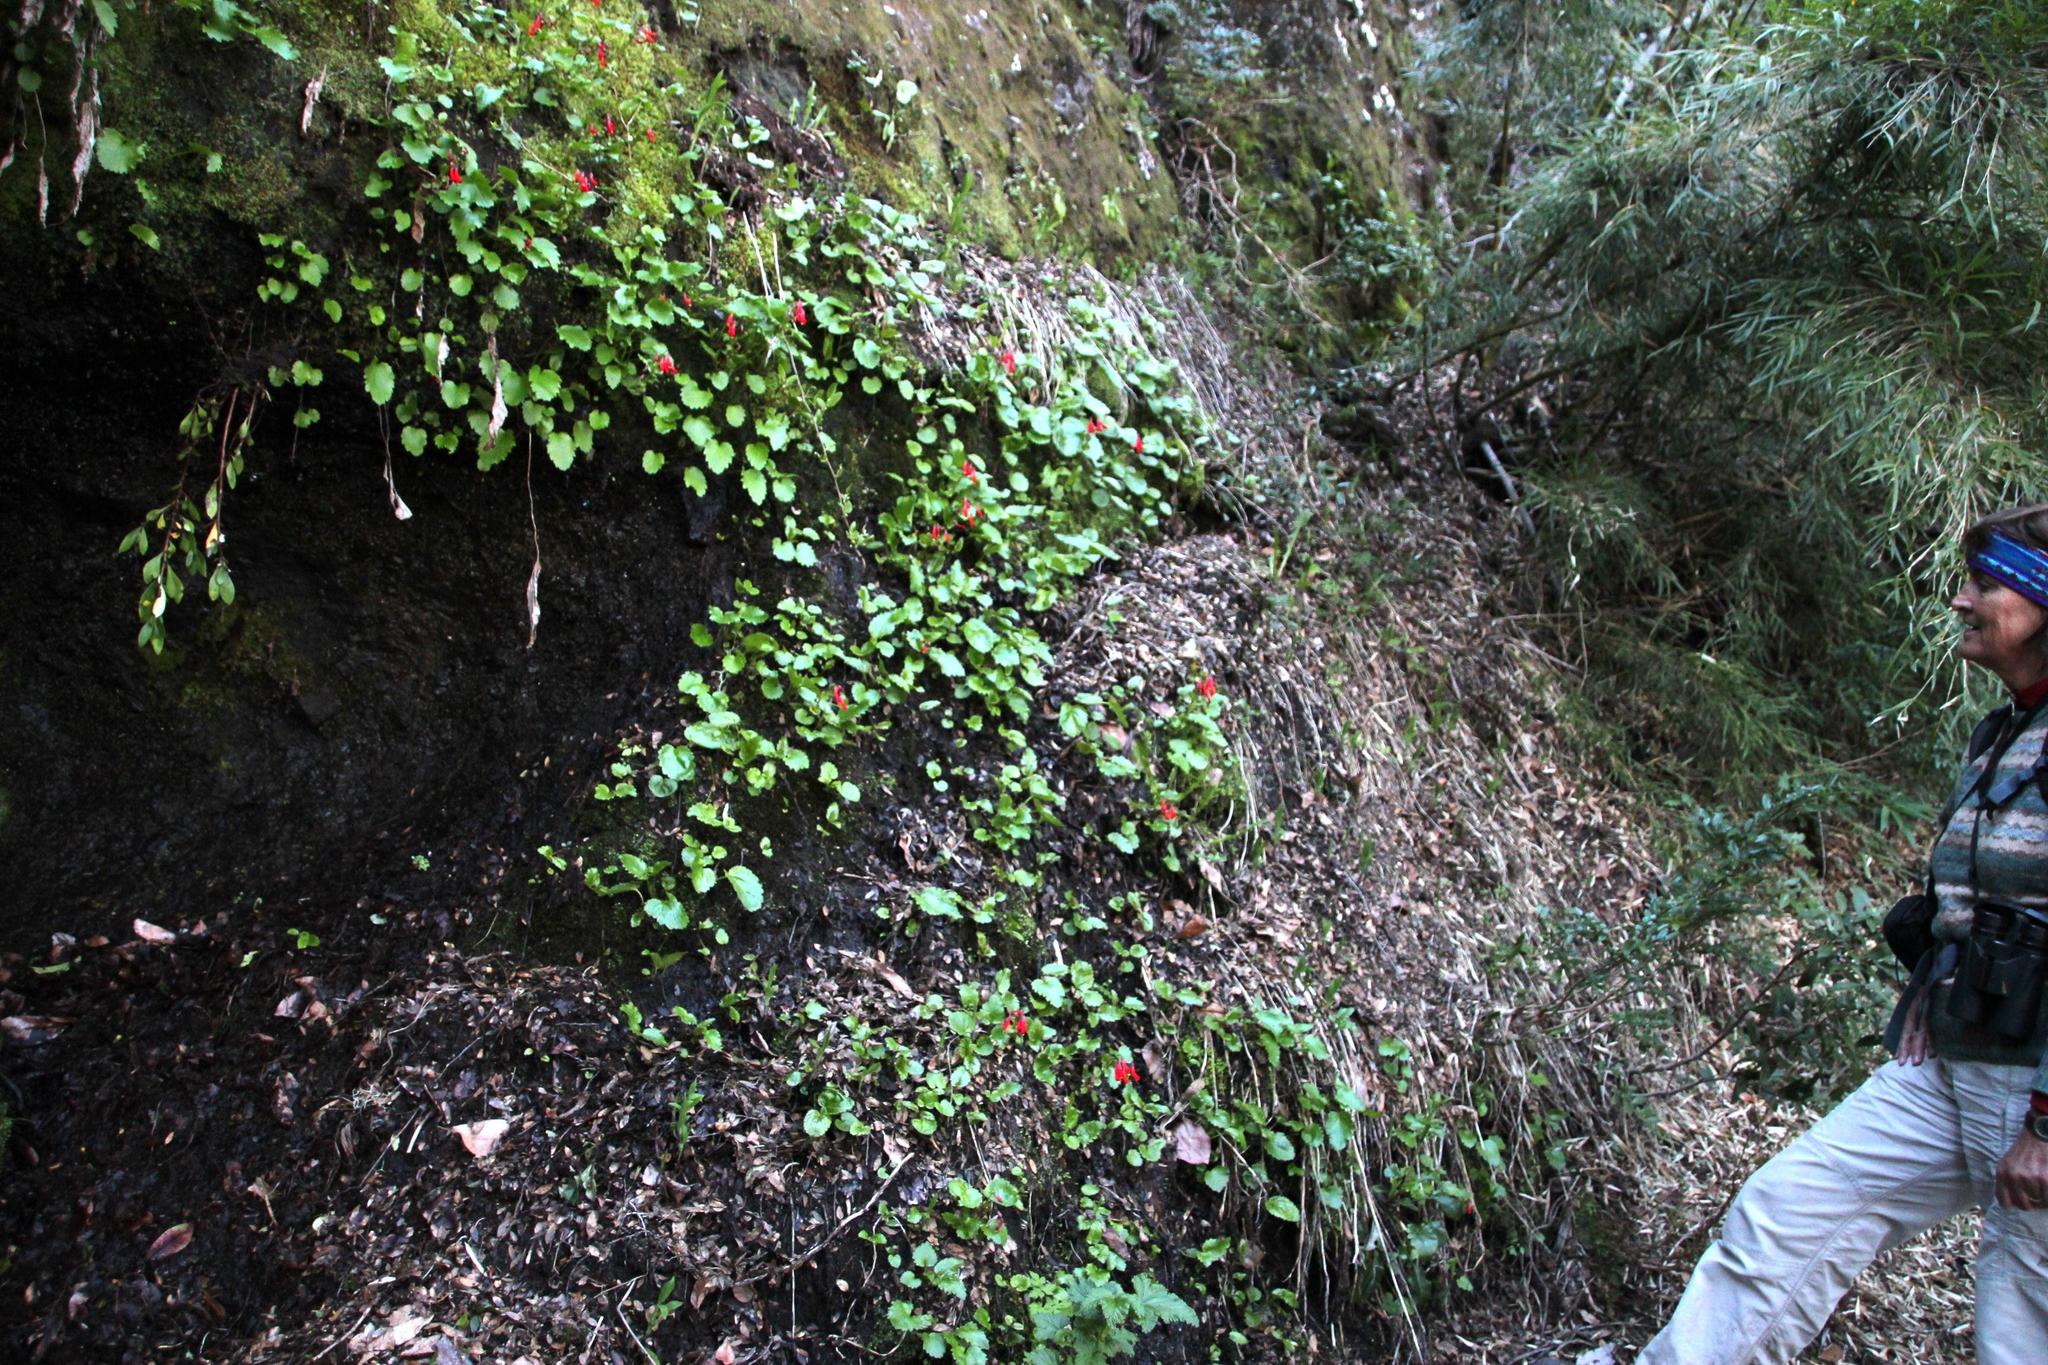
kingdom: Plantae
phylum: Tracheophyta
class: Magnoliopsida
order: Lamiales
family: Plantaginaceae
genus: Ourisia
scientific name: Ourisia ruellioides
